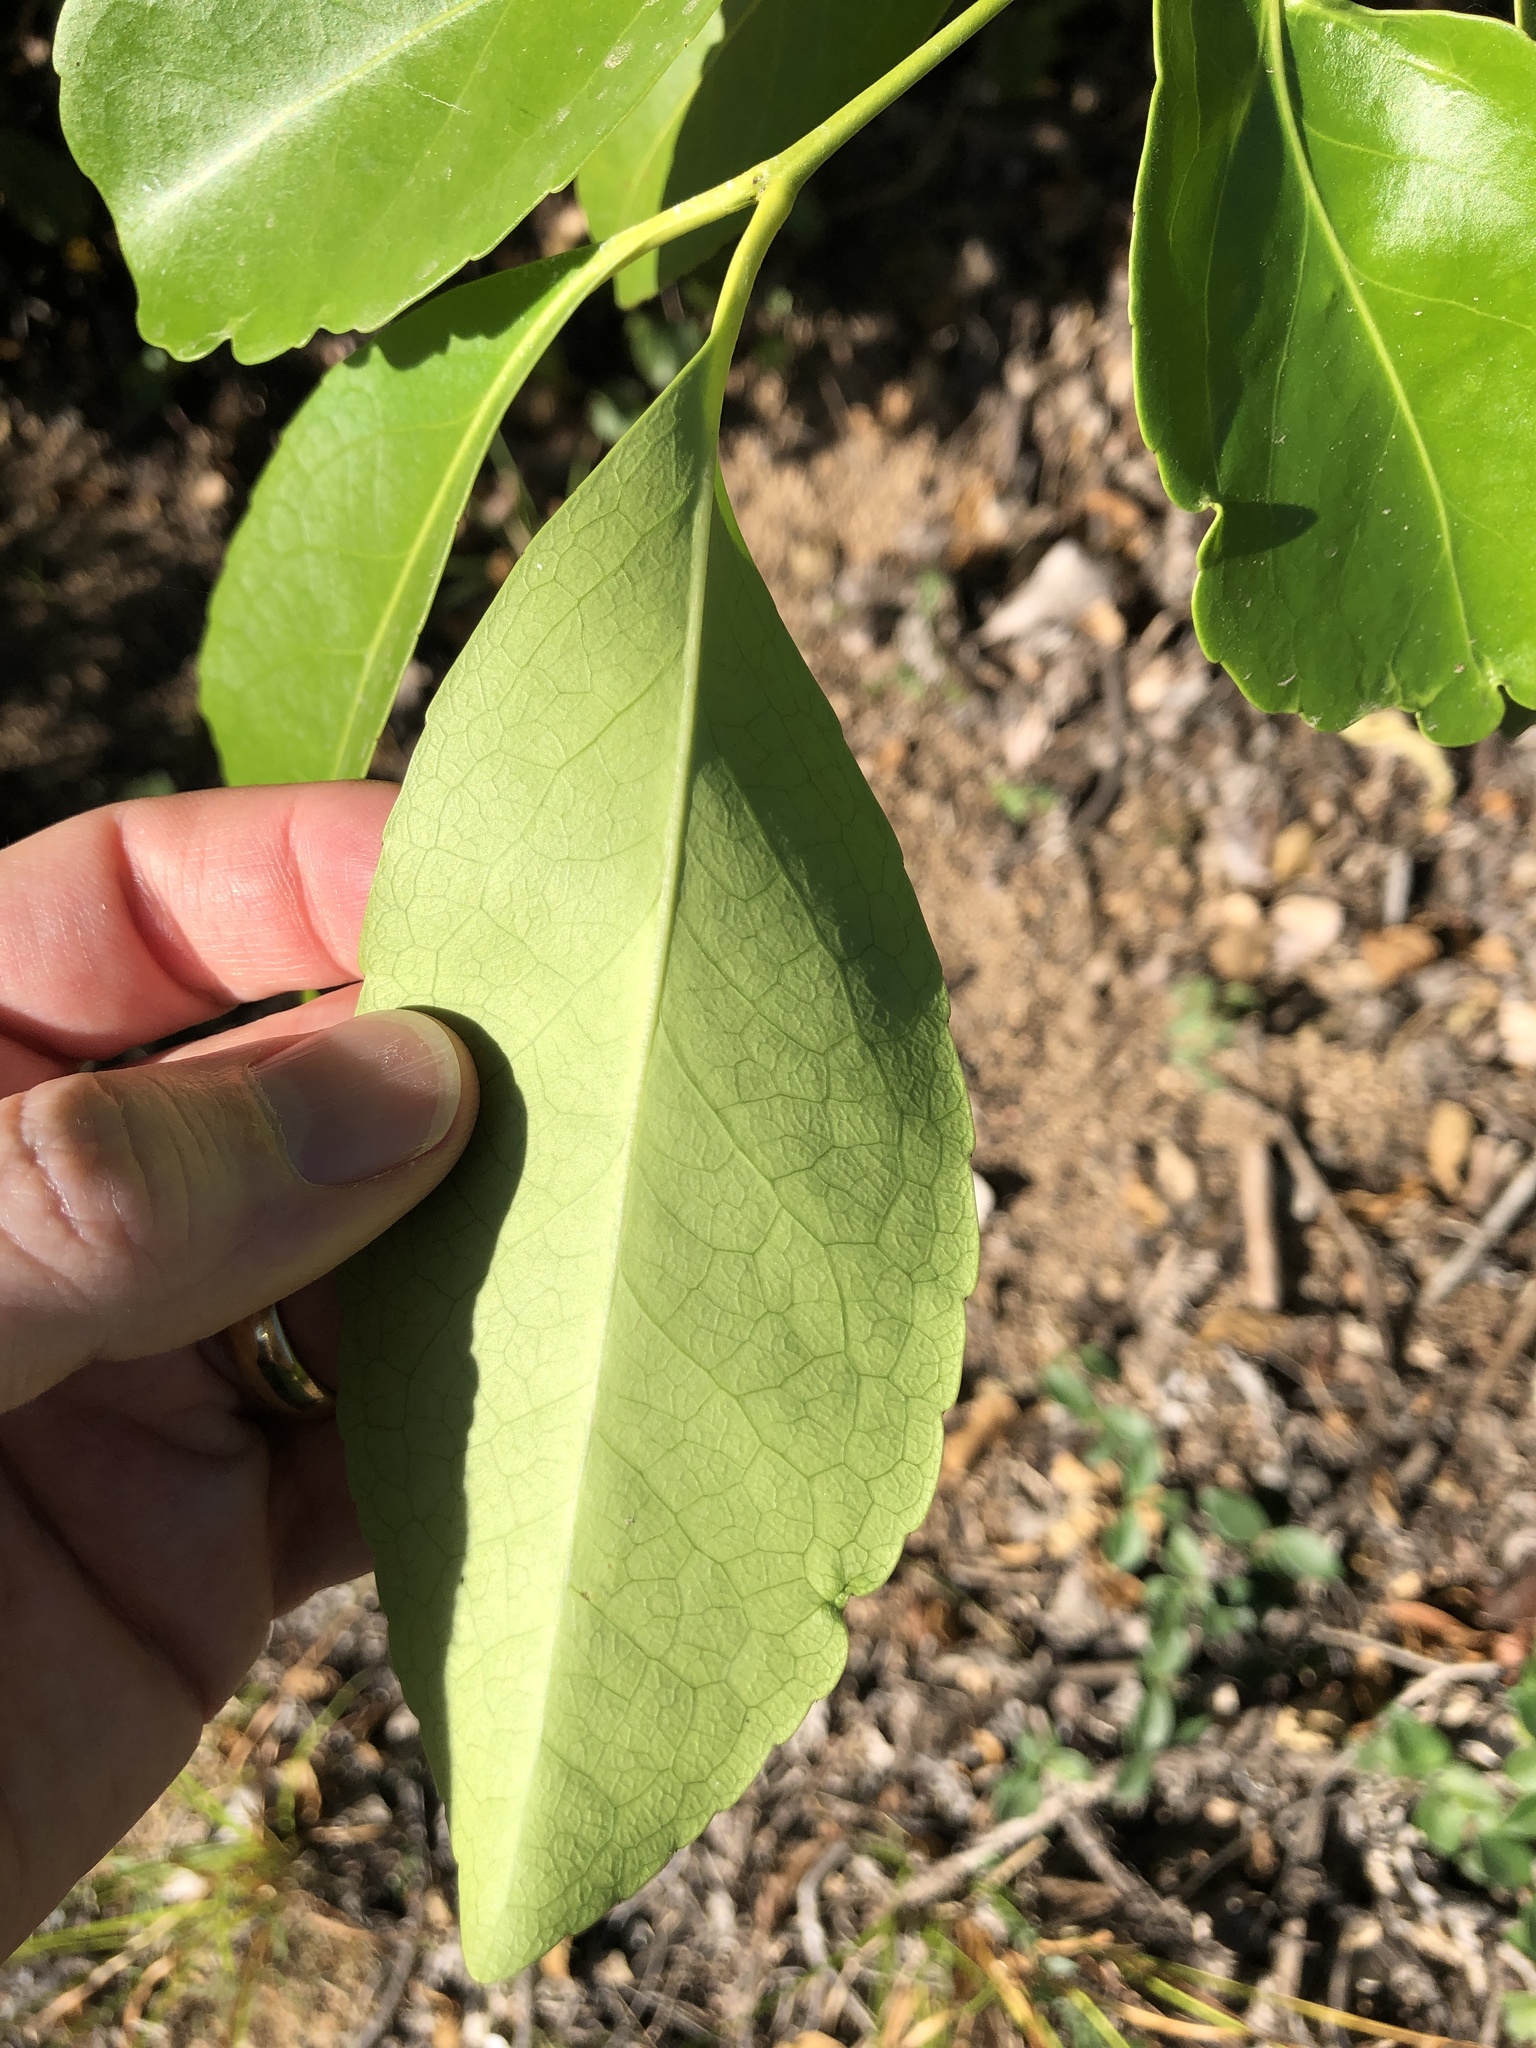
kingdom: Plantae
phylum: Tracheophyta
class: Magnoliopsida
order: Celastrales
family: Celastraceae
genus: Elaeodendron
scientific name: Elaeodendron melanocarpum
